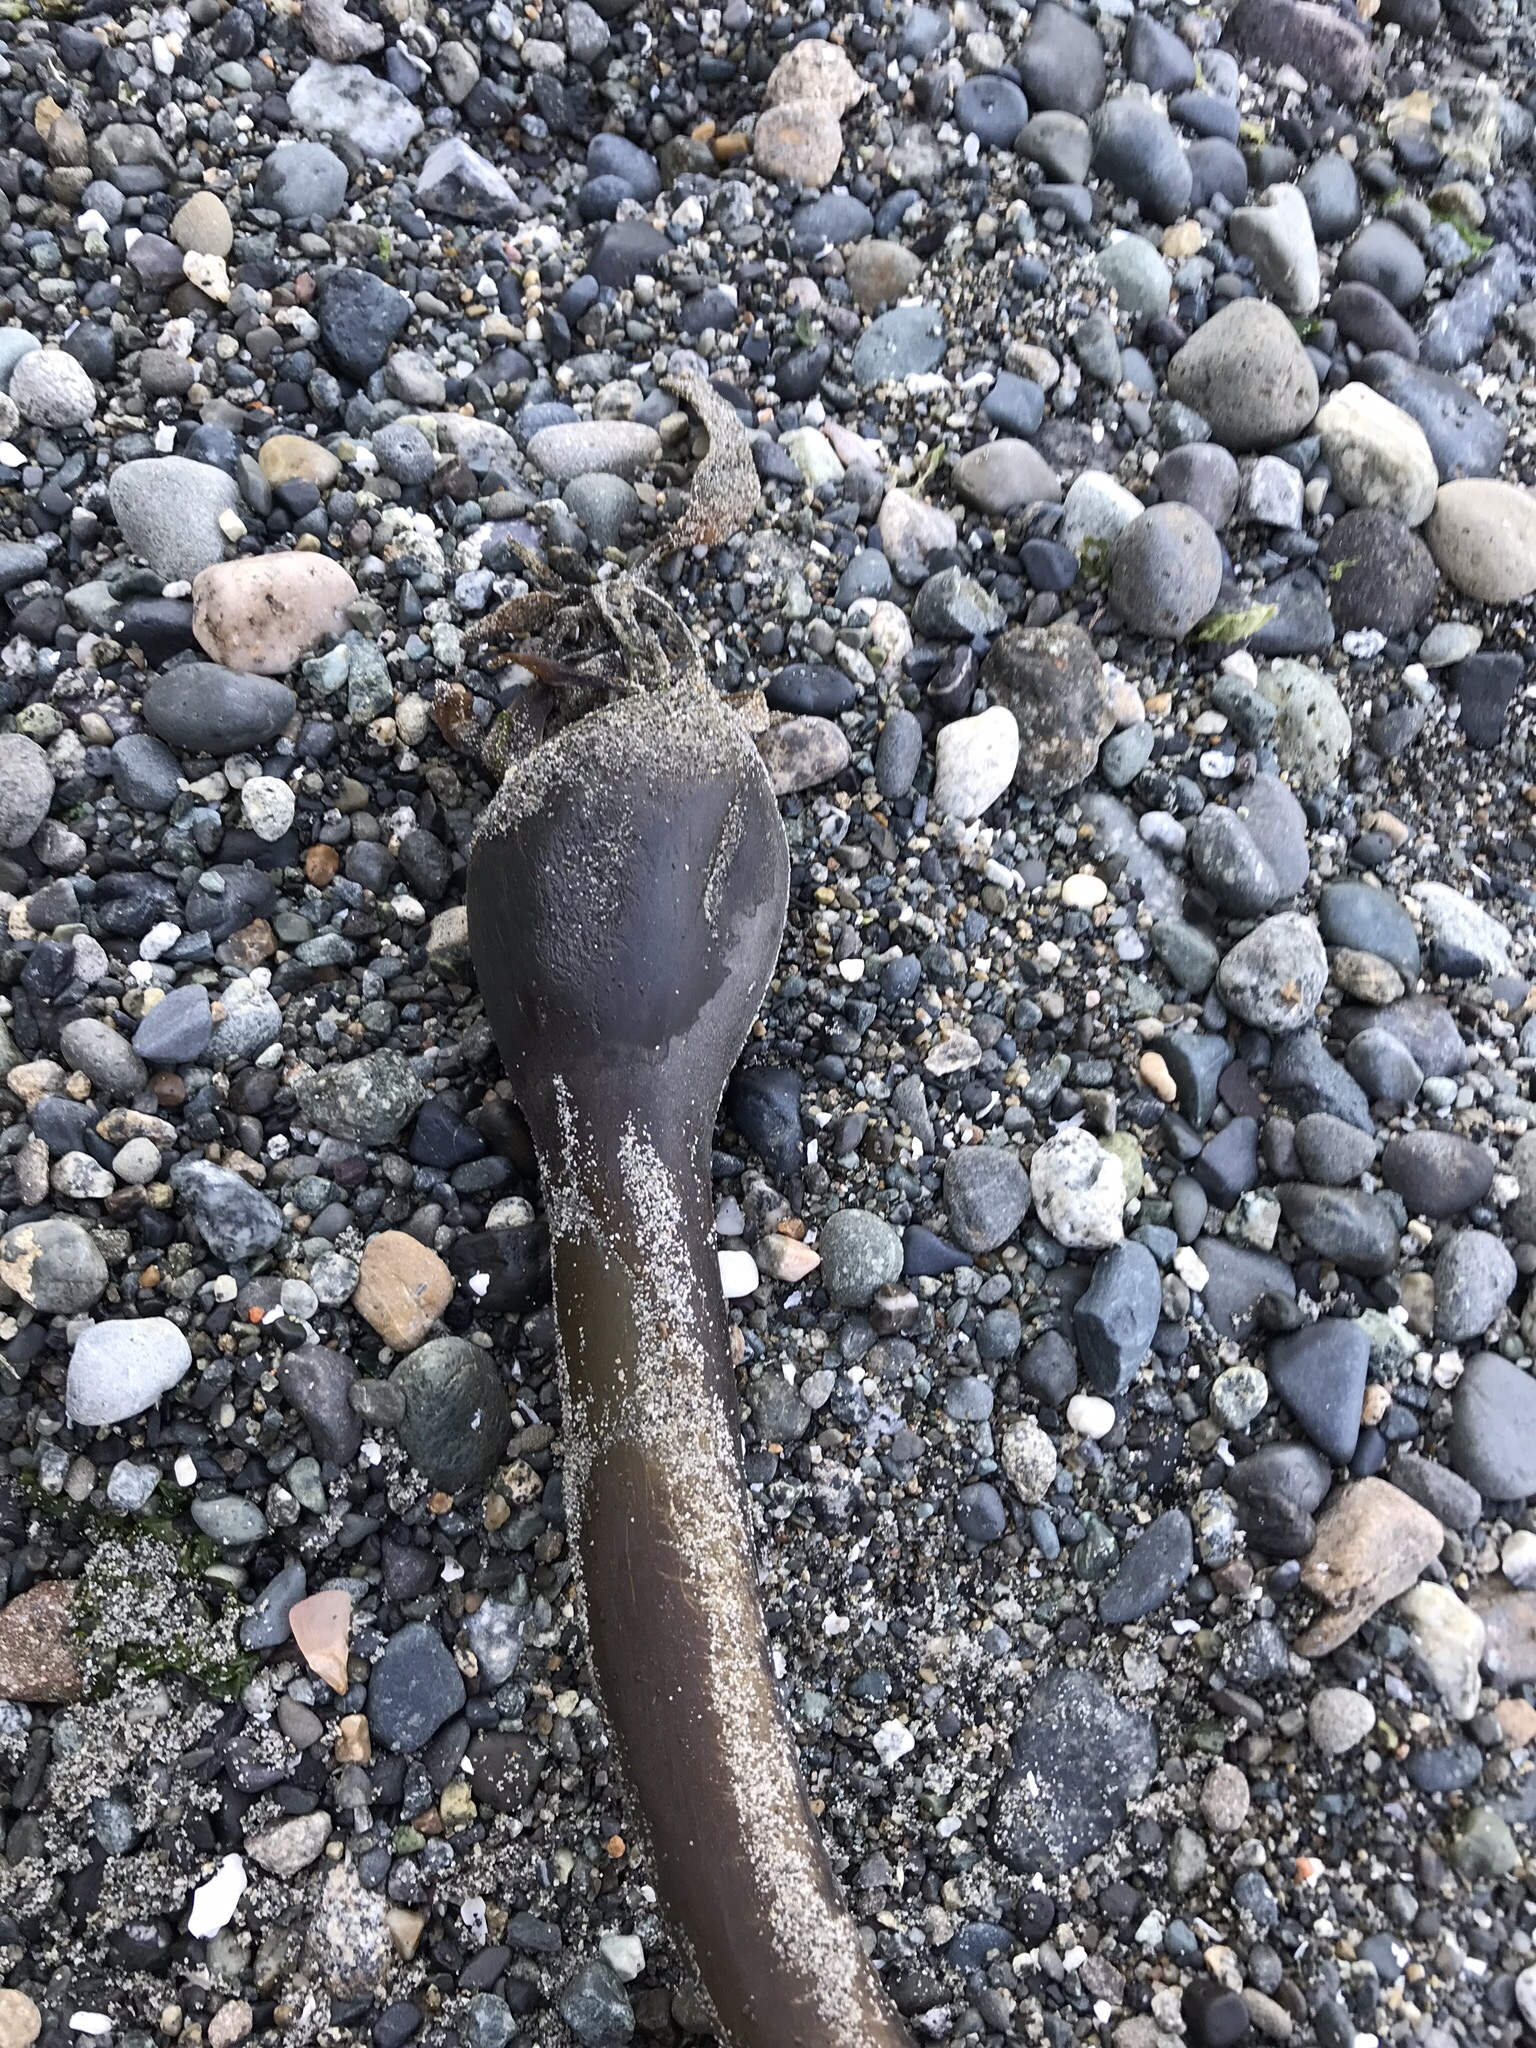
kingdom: Chromista
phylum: Ochrophyta
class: Phaeophyceae
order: Laminariales
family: Laminariaceae
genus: Nereocystis
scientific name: Nereocystis luetkeana
